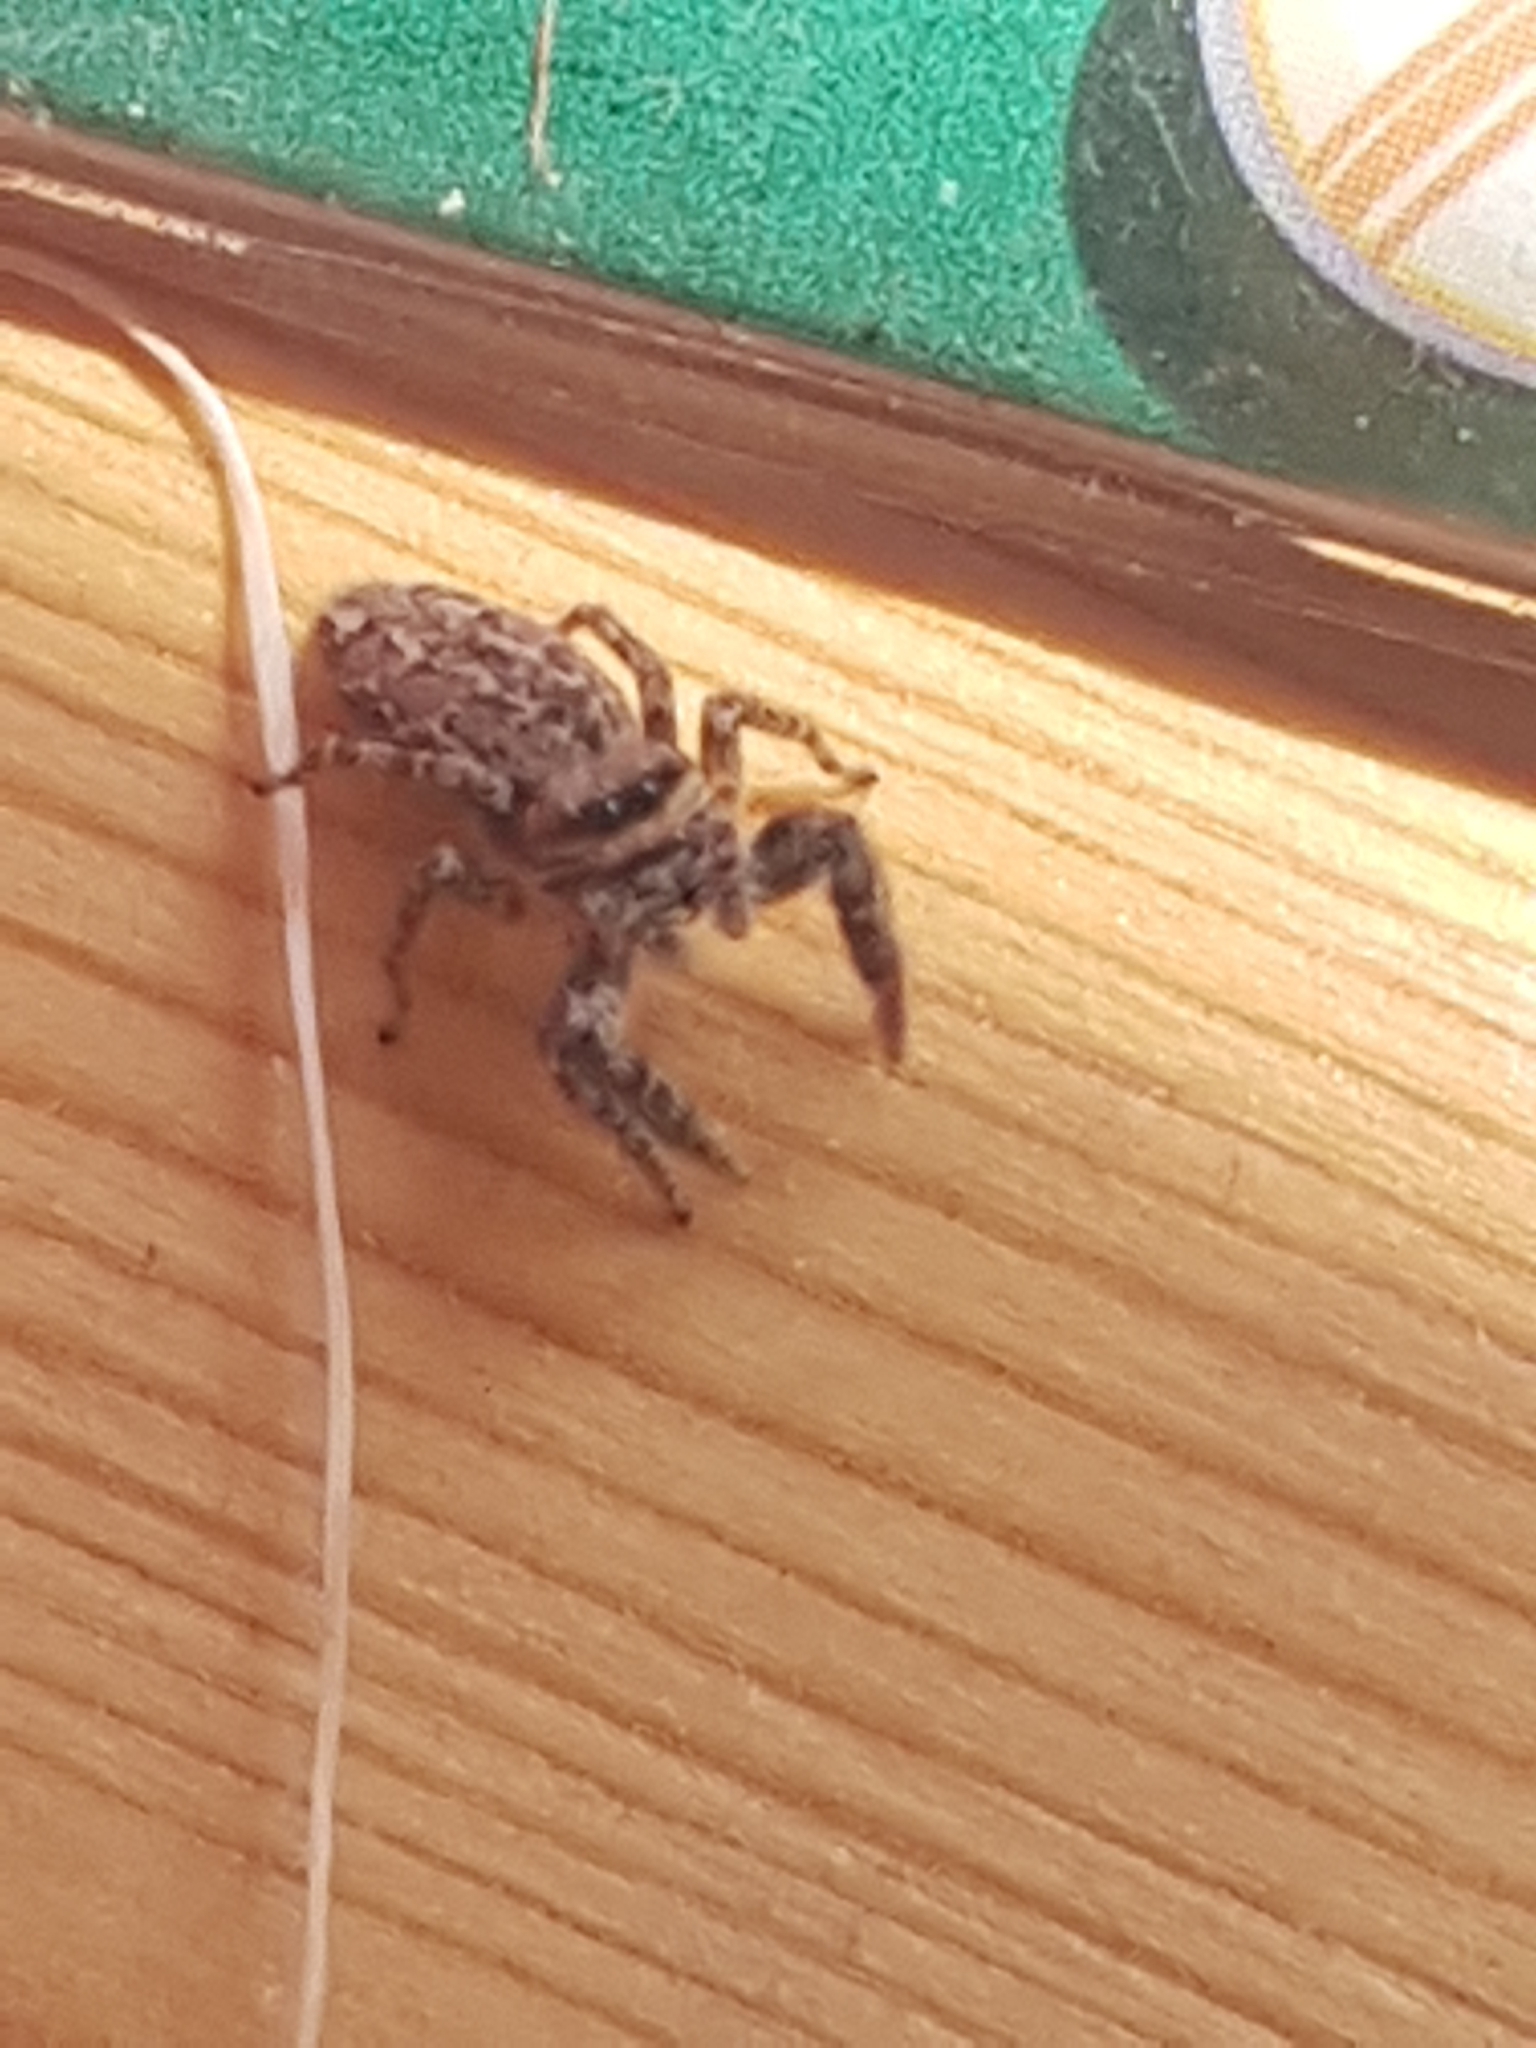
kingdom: Animalia
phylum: Arthropoda
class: Arachnida
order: Araneae
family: Salticidae
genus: Marpissa
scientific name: Marpissa muscosa
